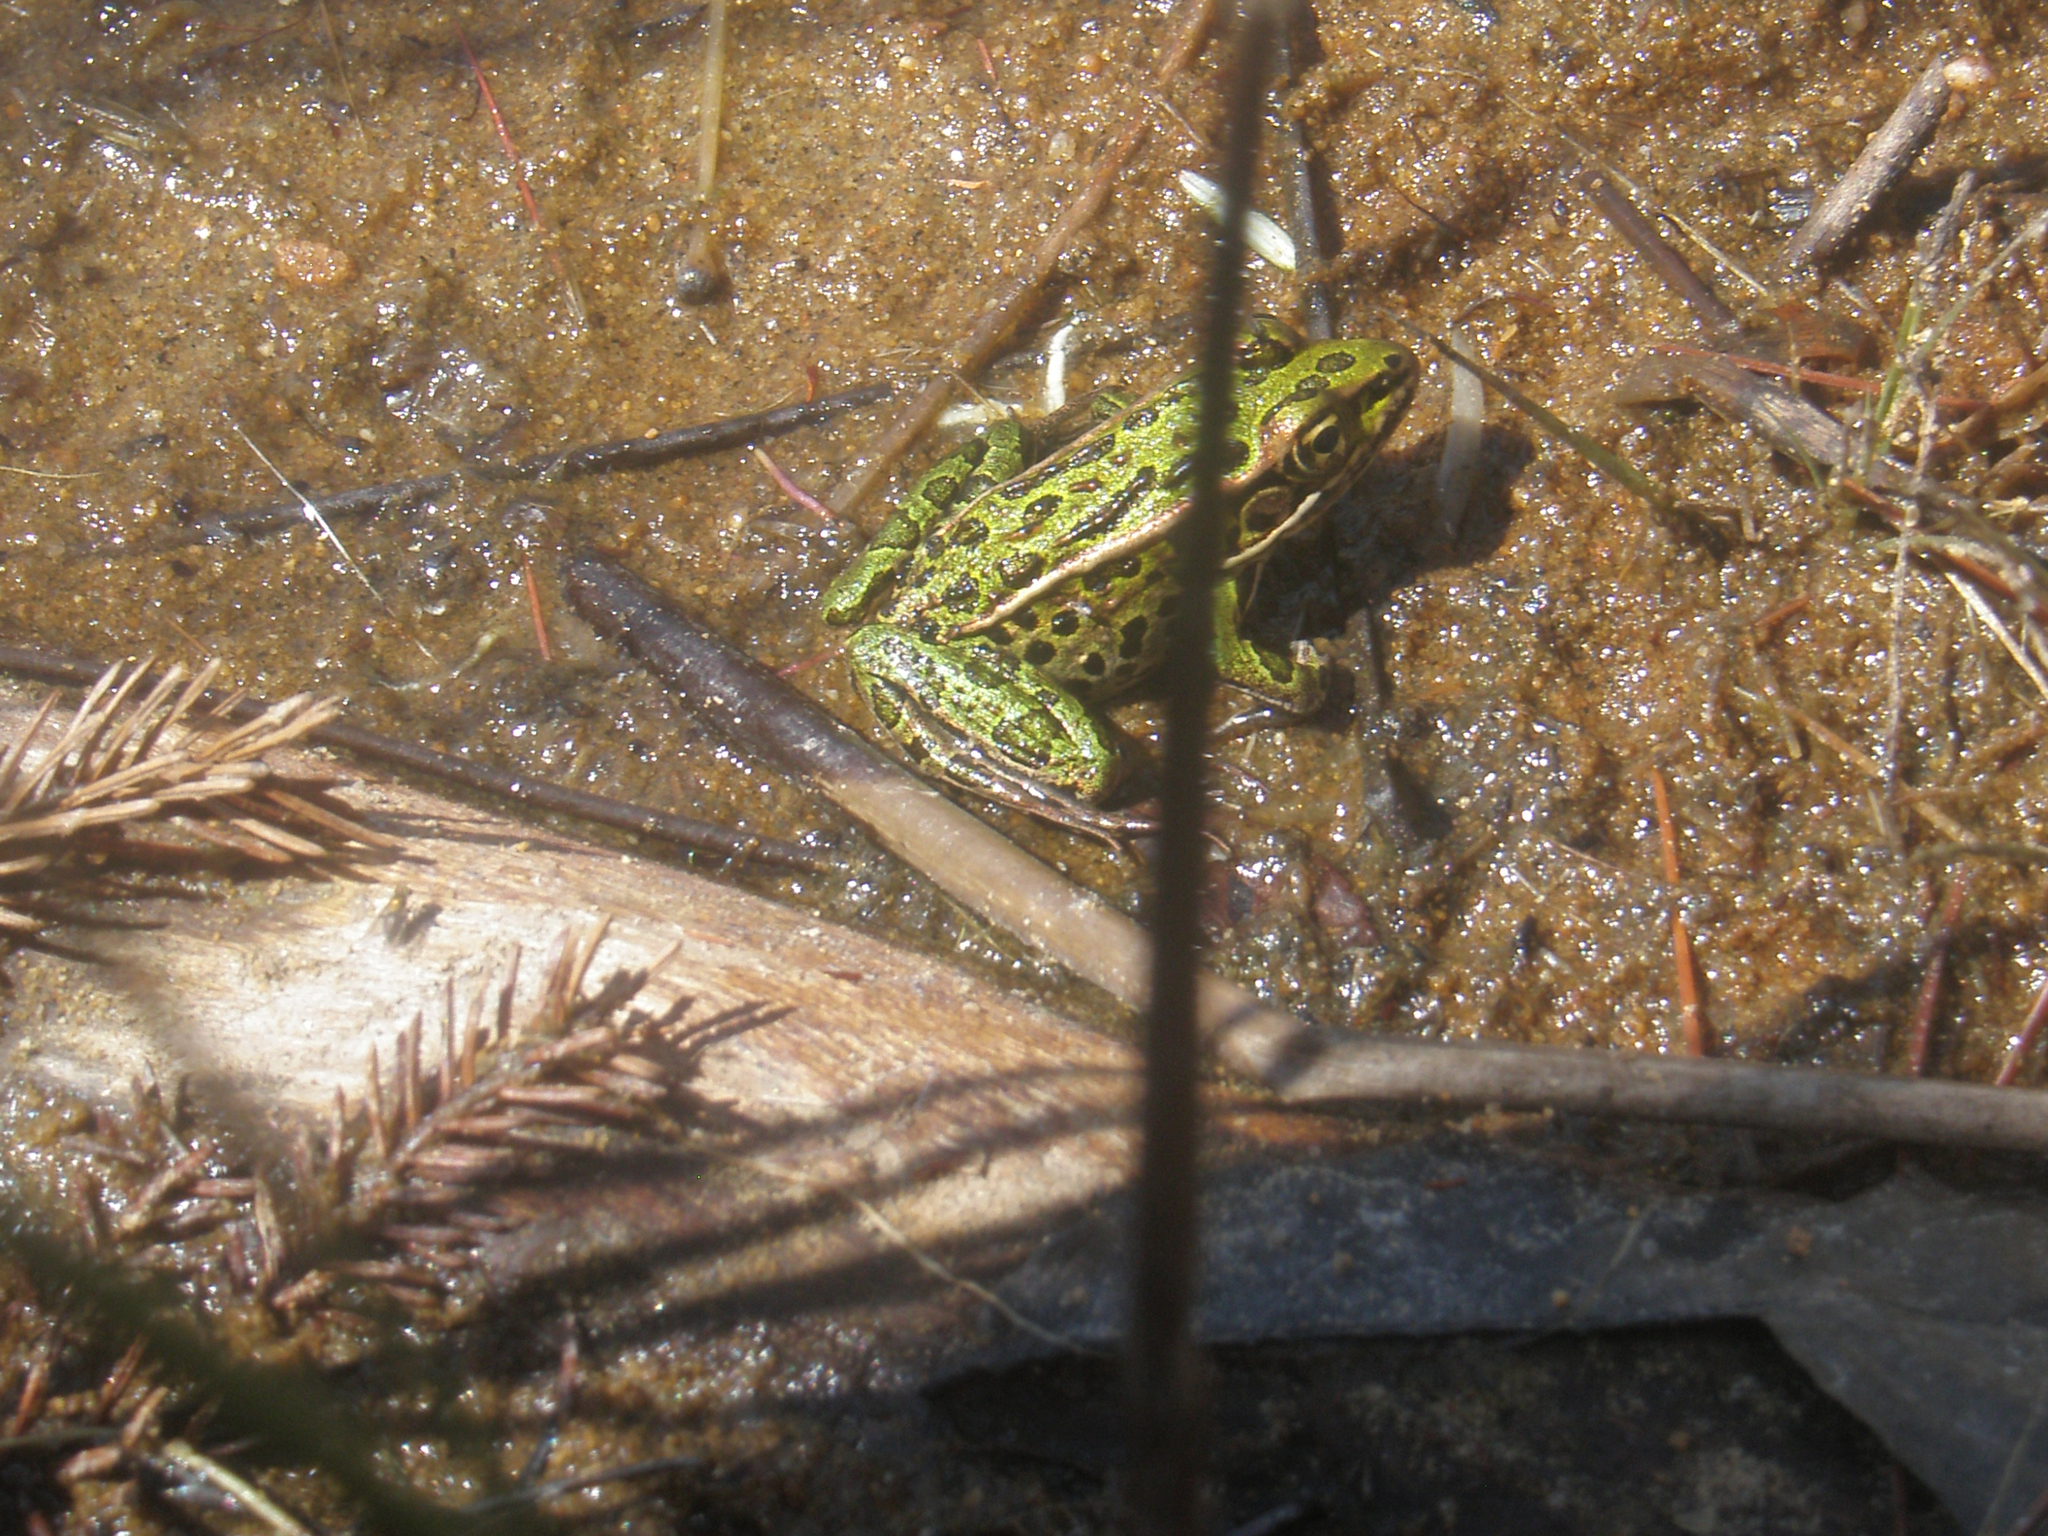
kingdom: Animalia
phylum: Chordata
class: Amphibia
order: Anura
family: Ranidae
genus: Lithobates
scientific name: Lithobates pipiens
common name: Northern leopard frog
